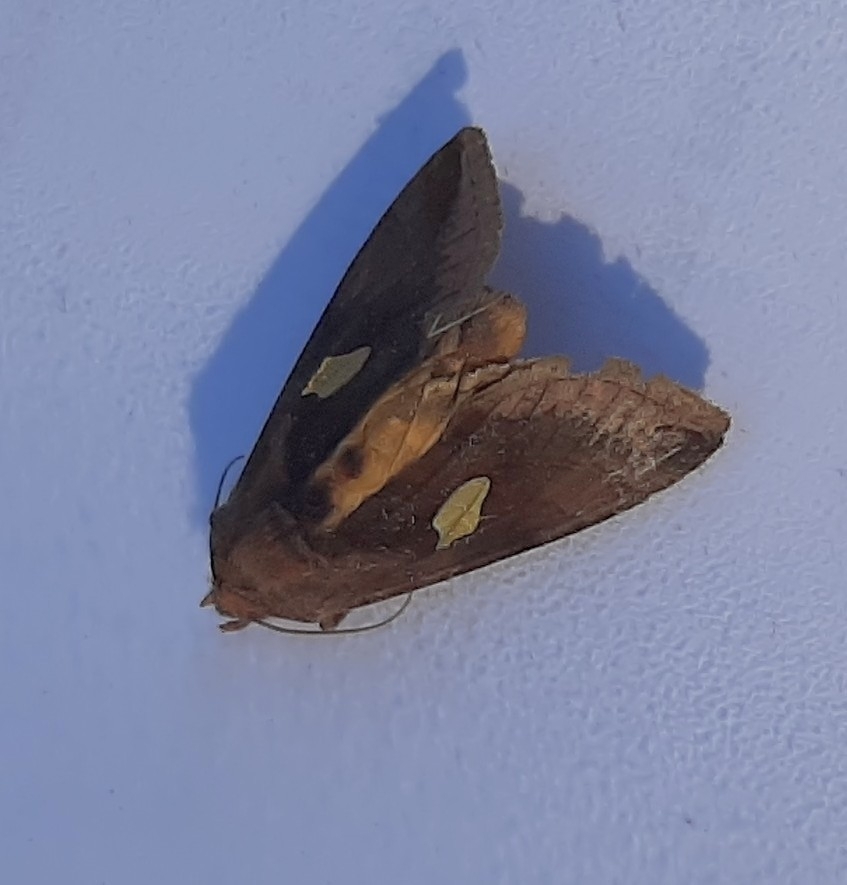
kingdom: Animalia
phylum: Arthropoda
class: Insecta
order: Lepidoptera
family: Noctuidae
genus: Autographa
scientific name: Autographa bractea
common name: Gold spangle
